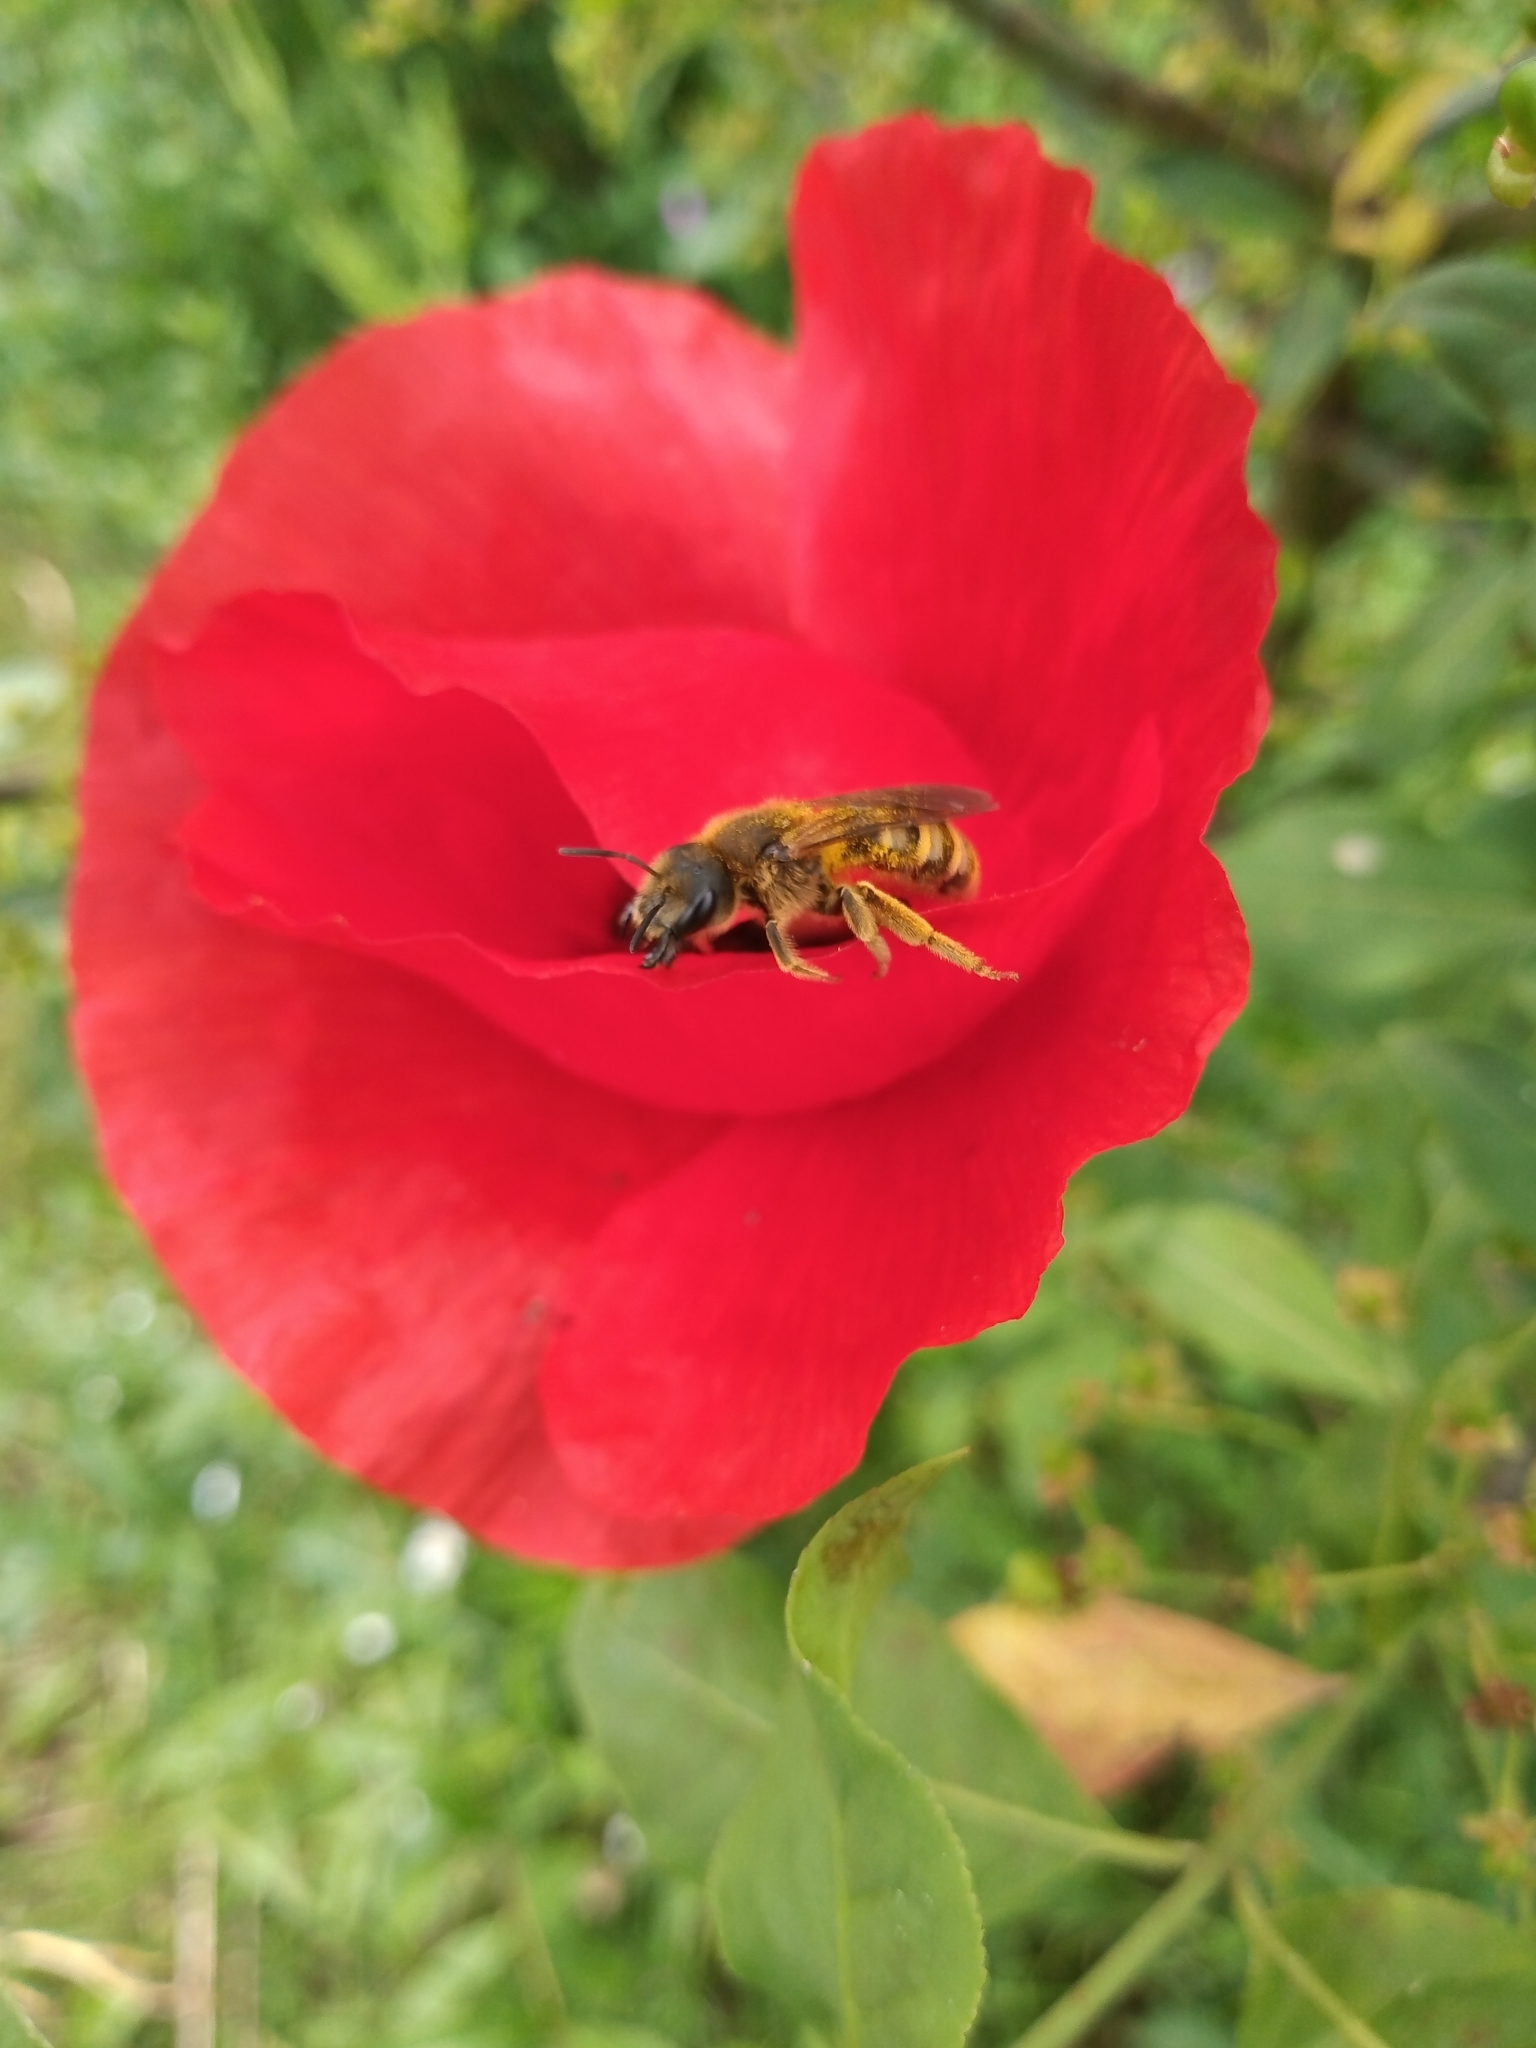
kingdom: Animalia
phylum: Arthropoda
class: Insecta
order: Hymenoptera
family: Halictidae
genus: Halictus
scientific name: Halictus scabiosae
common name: Great banded furrow bee
